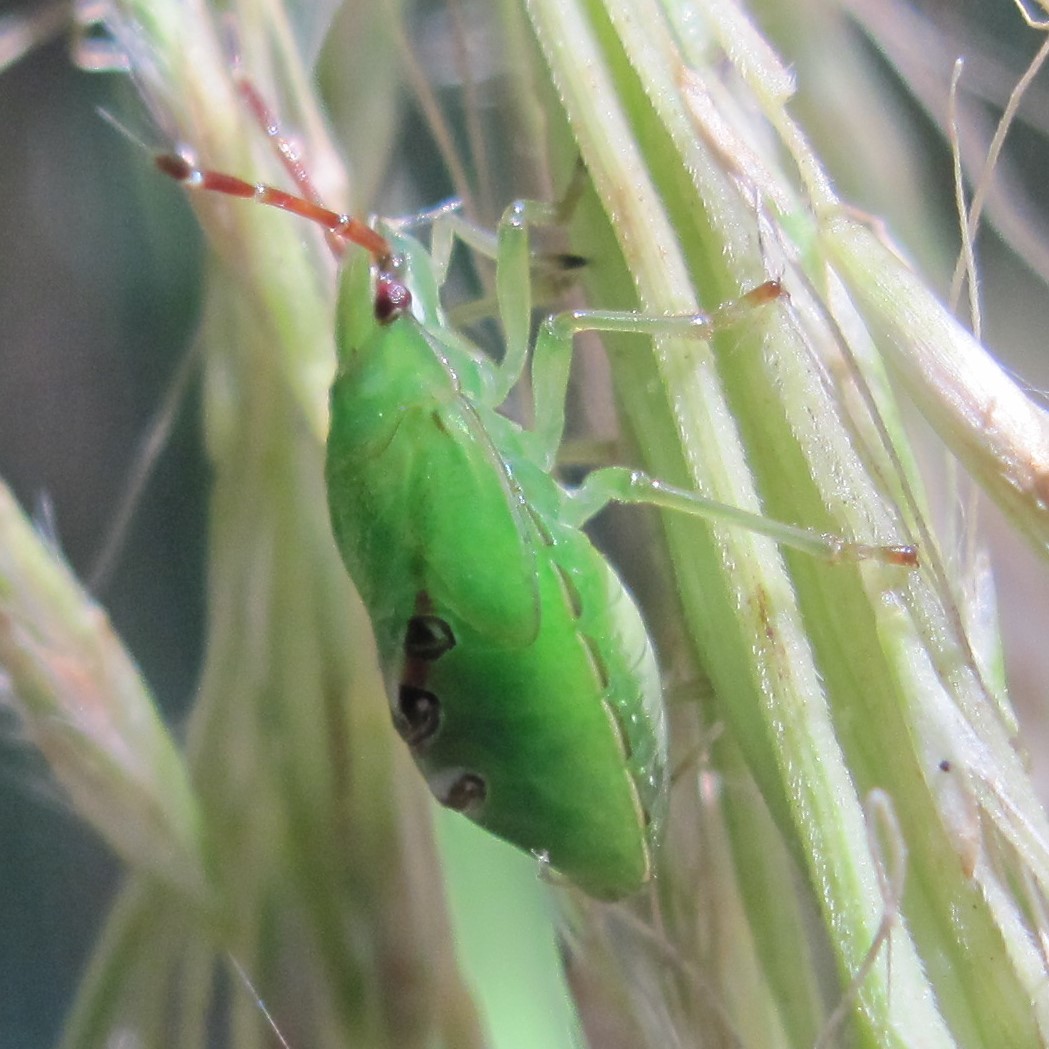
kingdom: Animalia
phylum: Arthropoda
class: Insecta
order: Hemiptera
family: Acanthosomatidae
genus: Oncacontias
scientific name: Oncacontias vittatus
